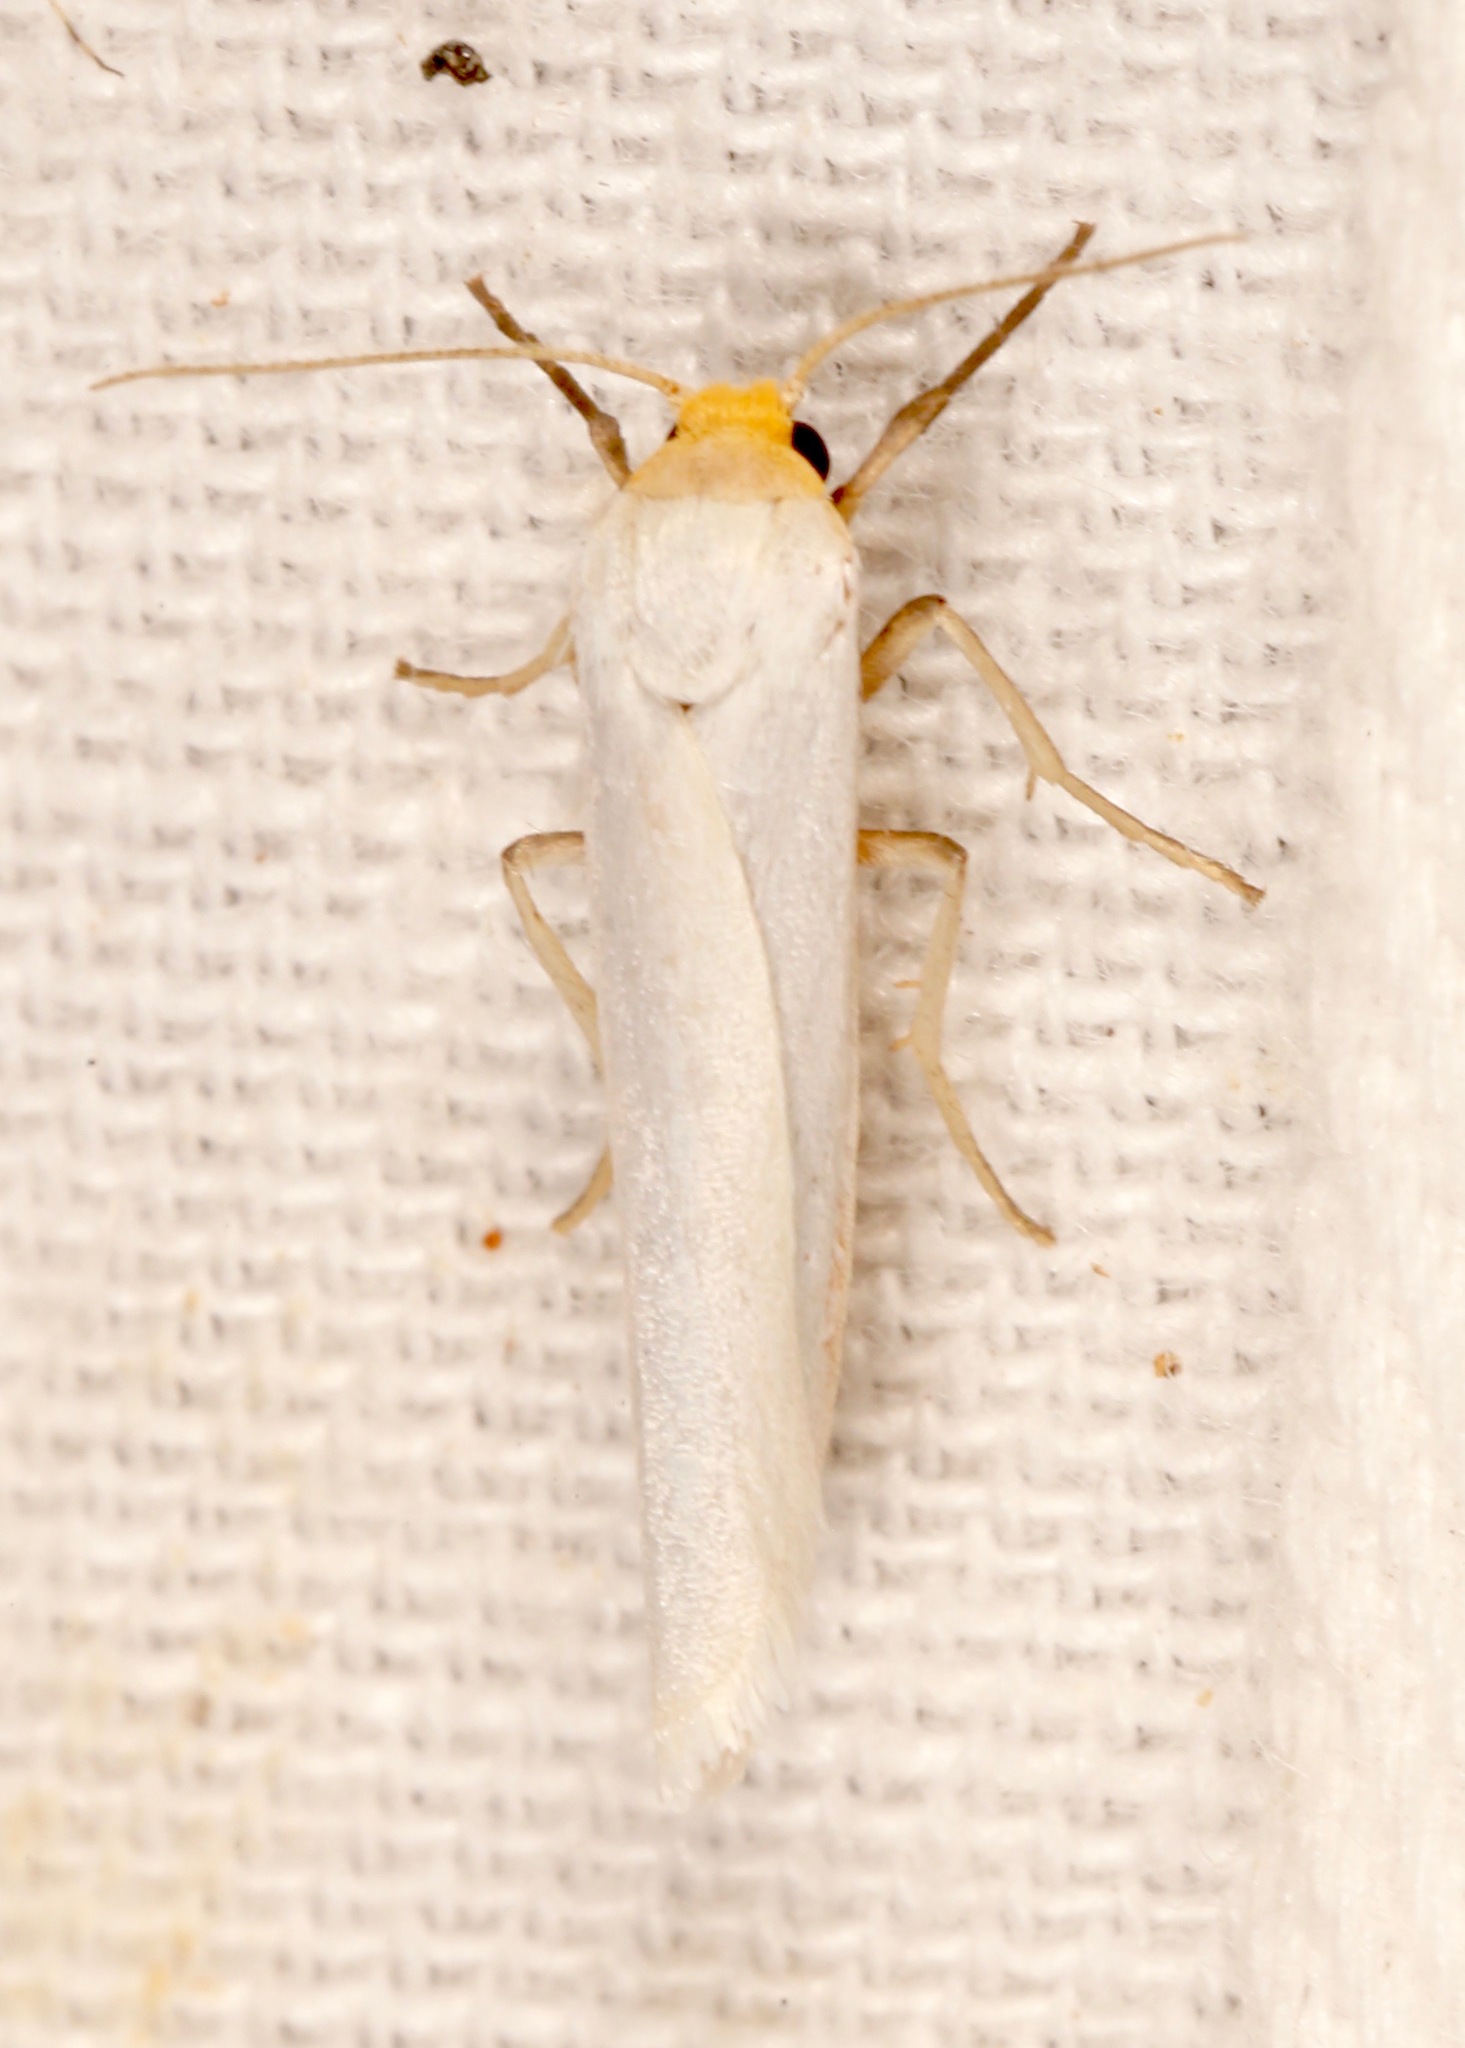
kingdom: Animalia
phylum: Arthropoda
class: Insecta
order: Lepidoptera
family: Erebidae
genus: Crambidia
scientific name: Crambidia cephalica
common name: Yellow-headed lichen moth
